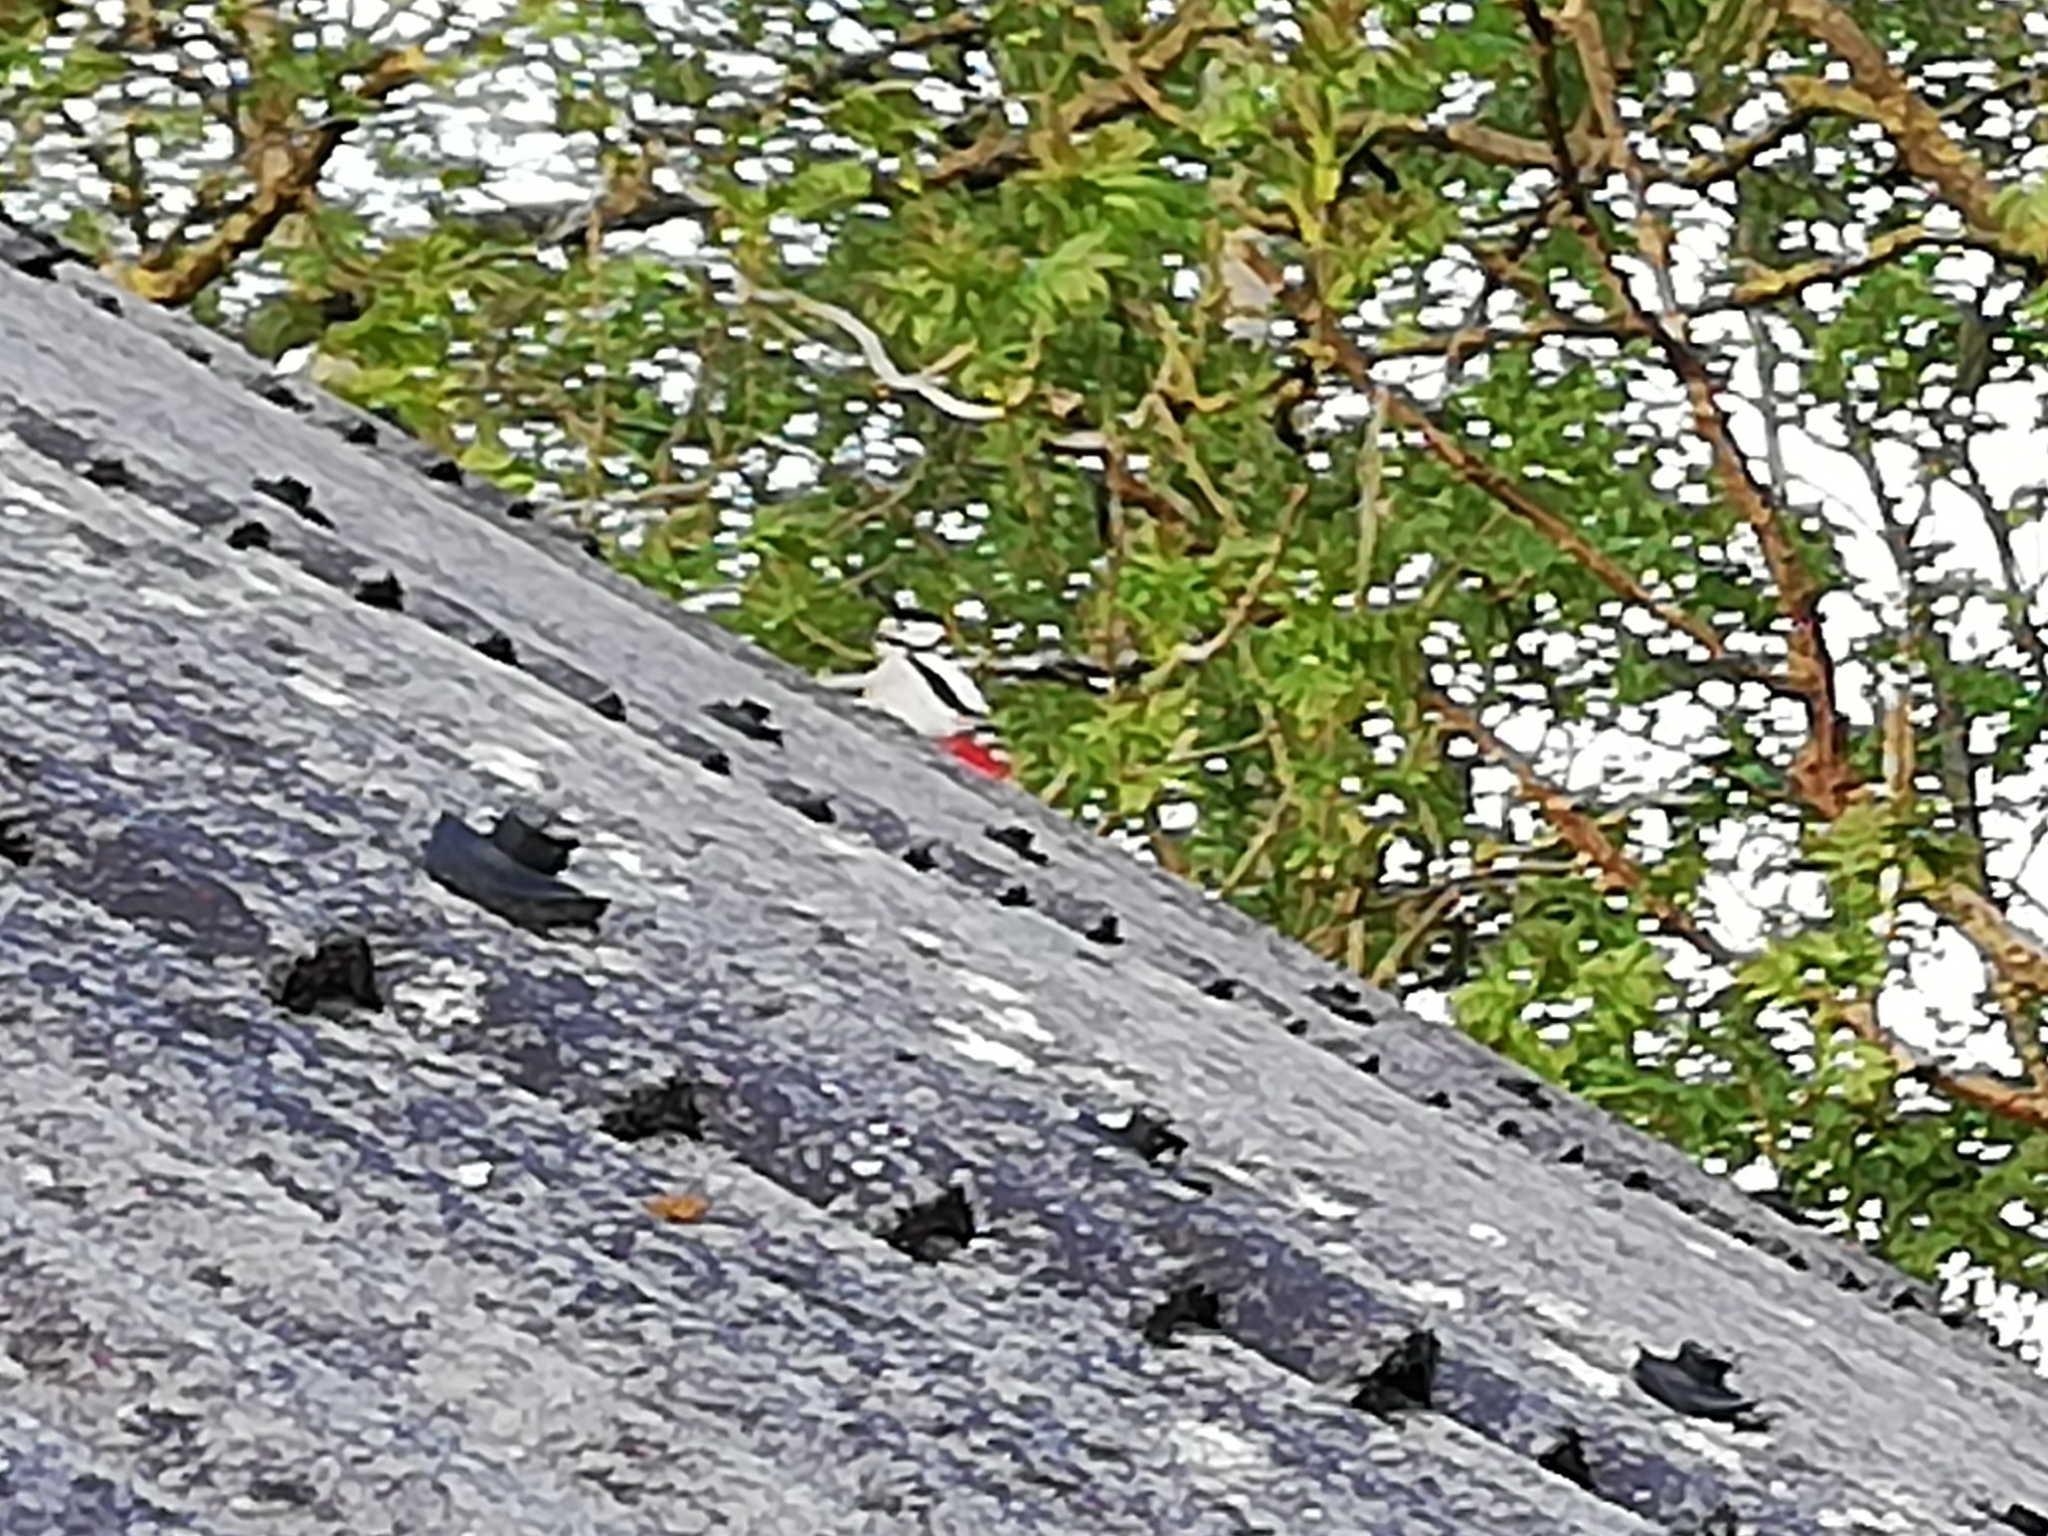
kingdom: Animalia
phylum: Chordata
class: Aves
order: Piciformes
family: Picidae
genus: Dendrocopos
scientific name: Dendrocopos major
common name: Great spotted woodpecker
